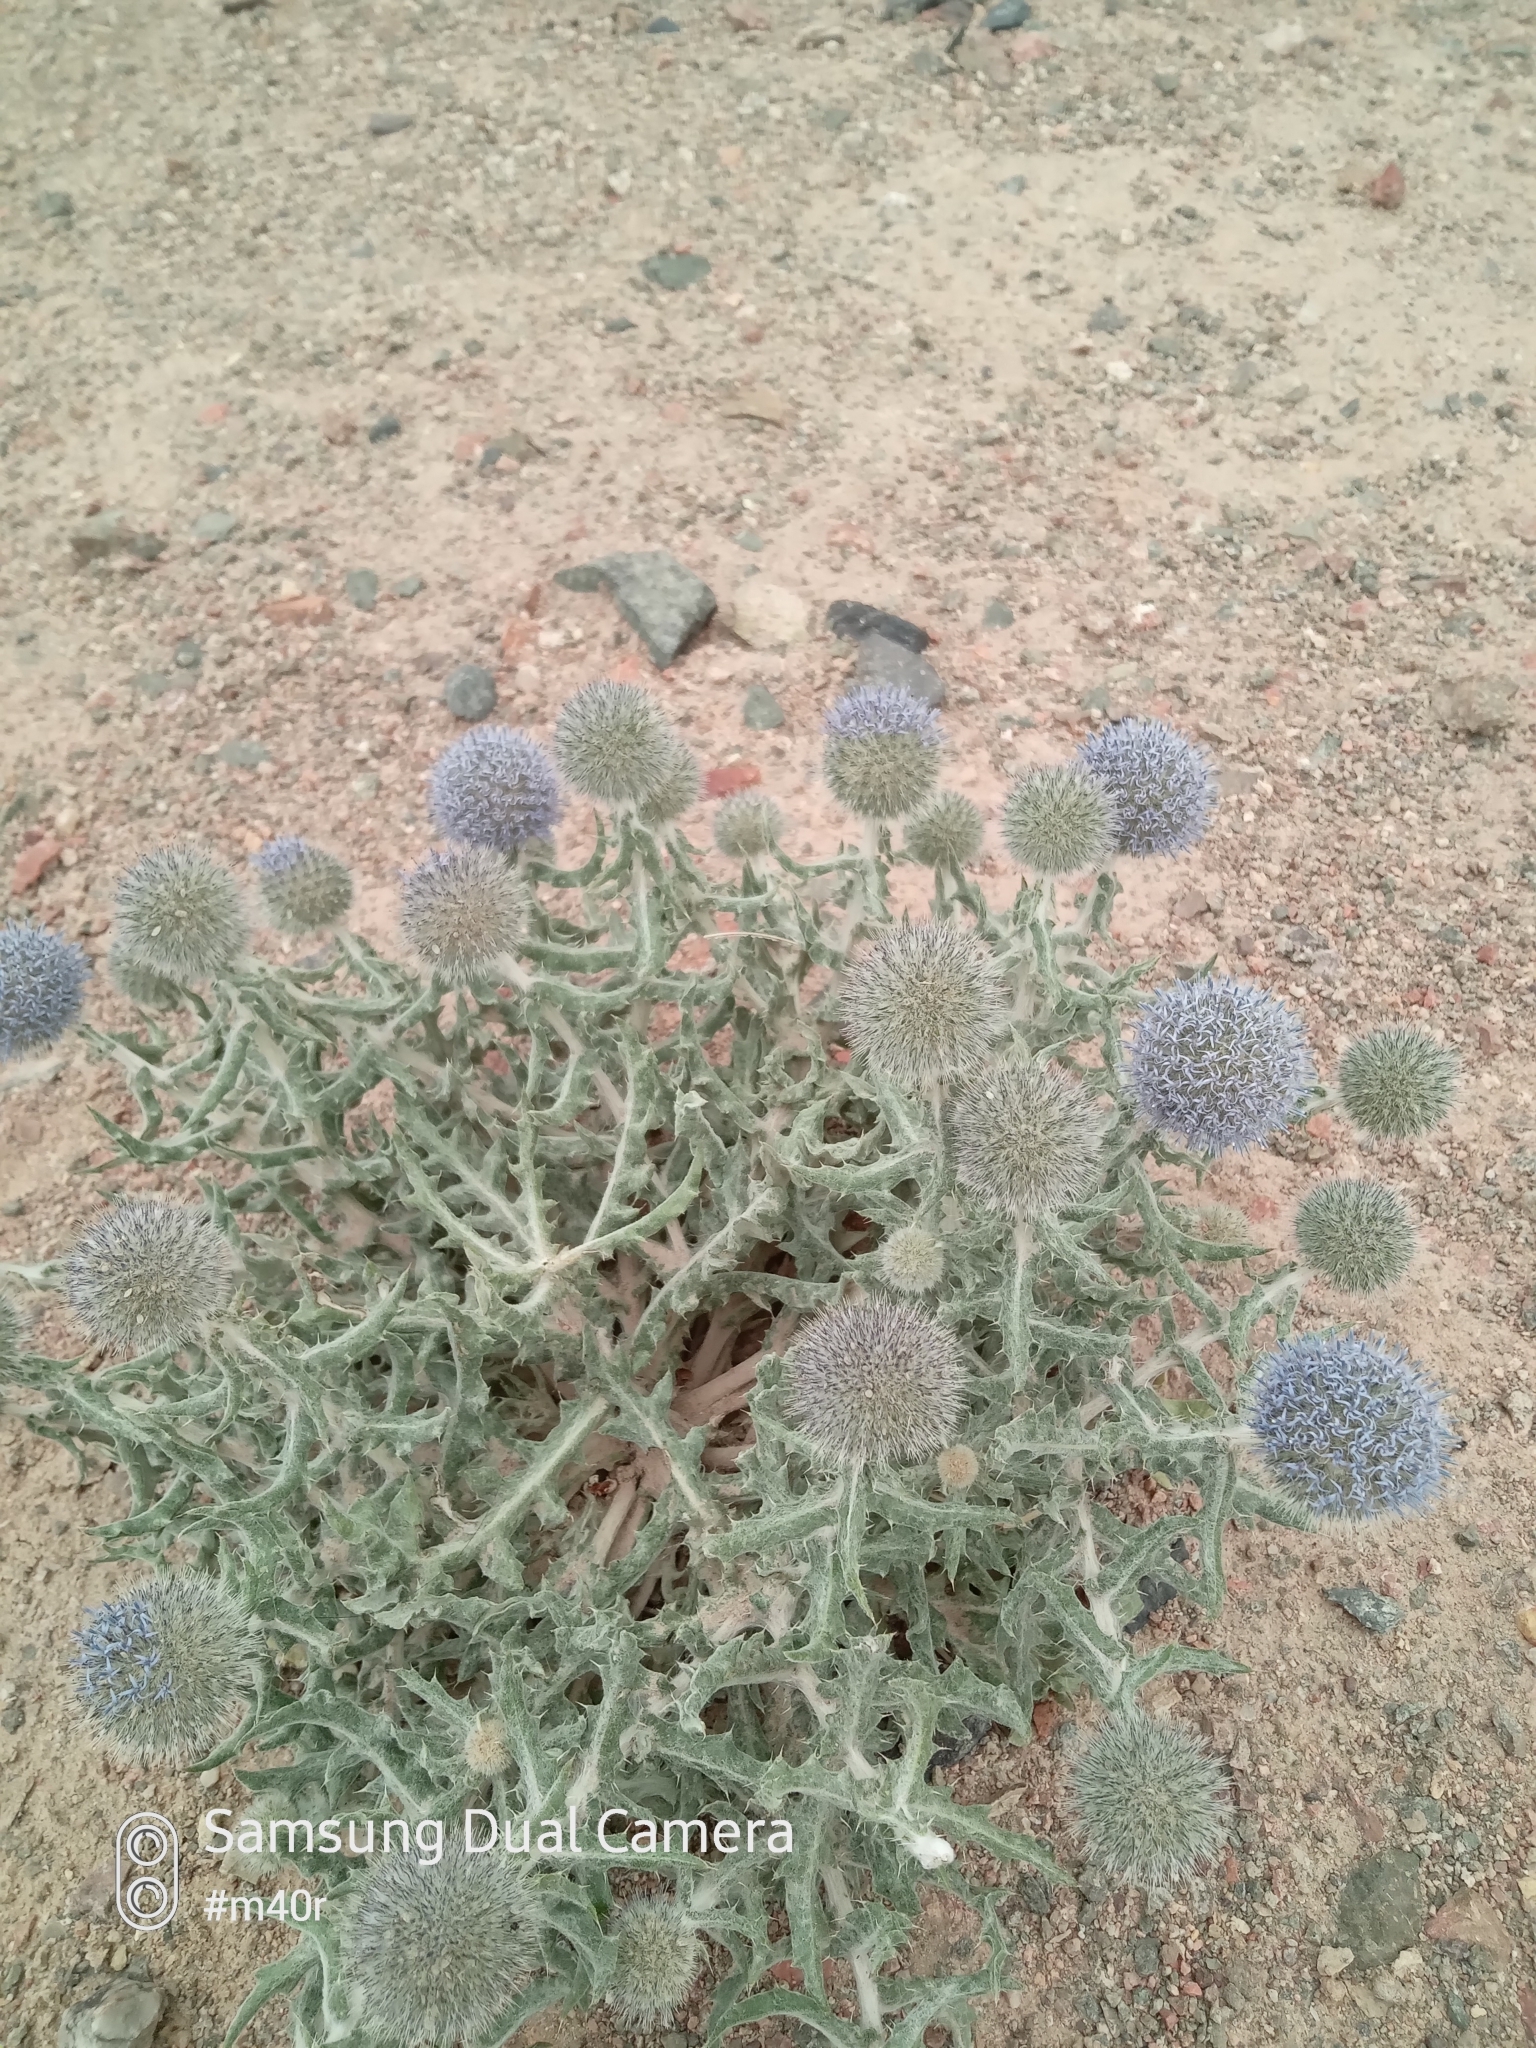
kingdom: Plantae
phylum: Tracheophyta
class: Magnoliopsida
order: Asterales
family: Asteraceae
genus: Echinops
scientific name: Echinops nanus
